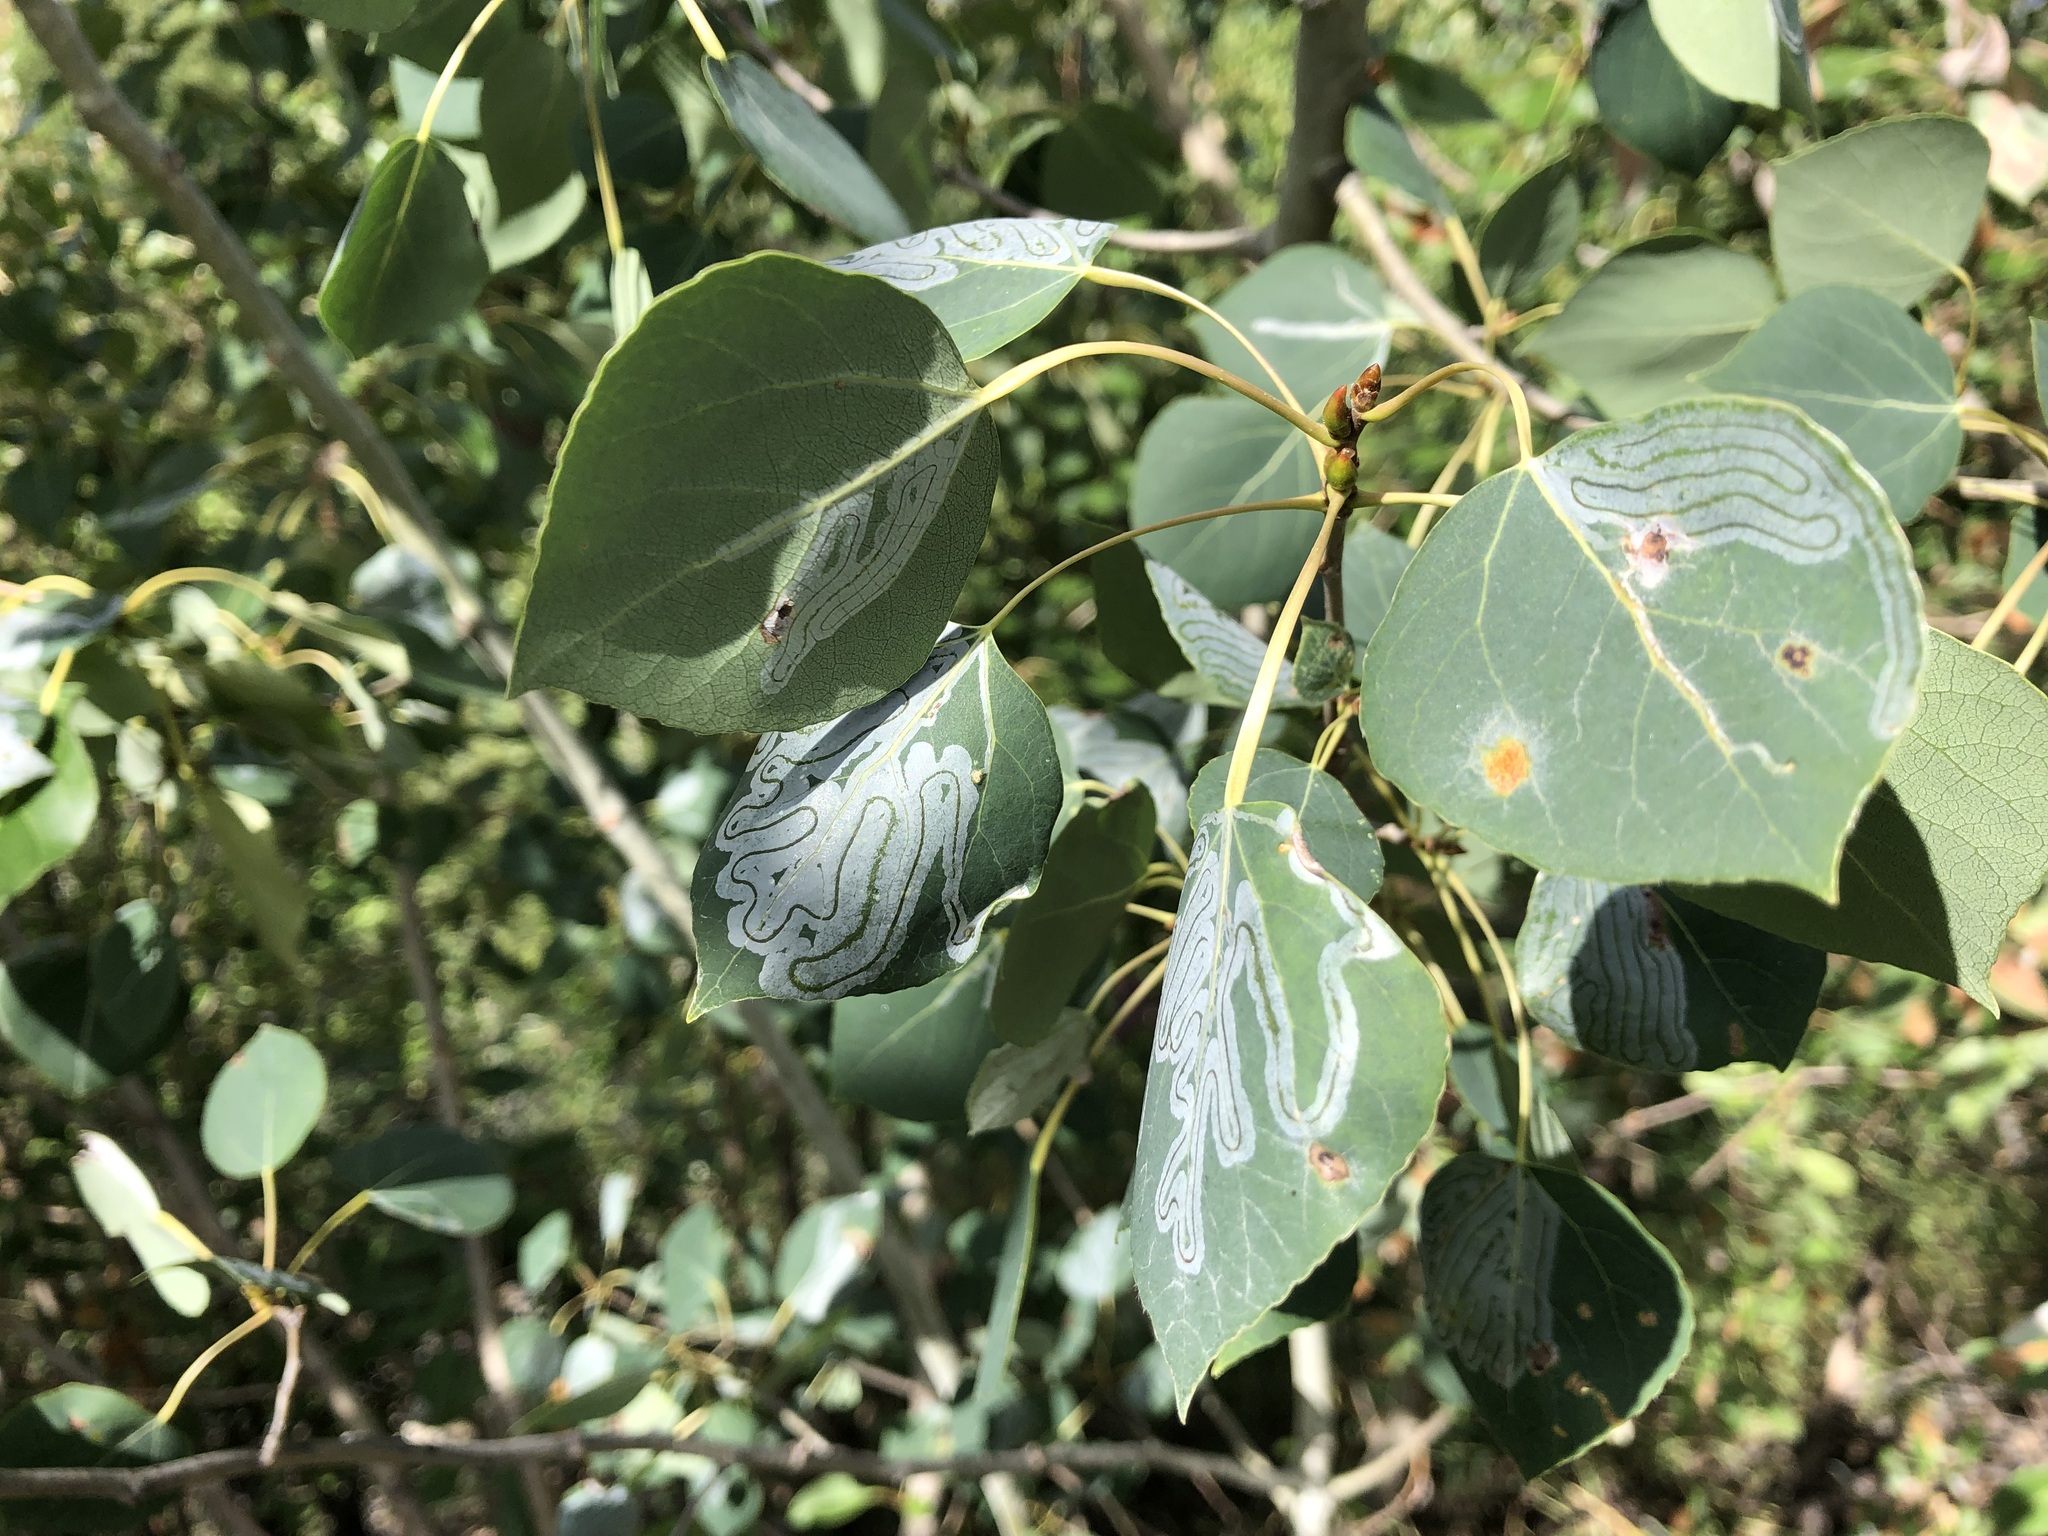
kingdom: Animalia
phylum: Arthropoda
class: Insecta
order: Lepidoptera
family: Gracillariidae
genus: Phyllocnistis
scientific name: Phyllocnistis populiella
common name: Aspen serpentine leafminer moth
